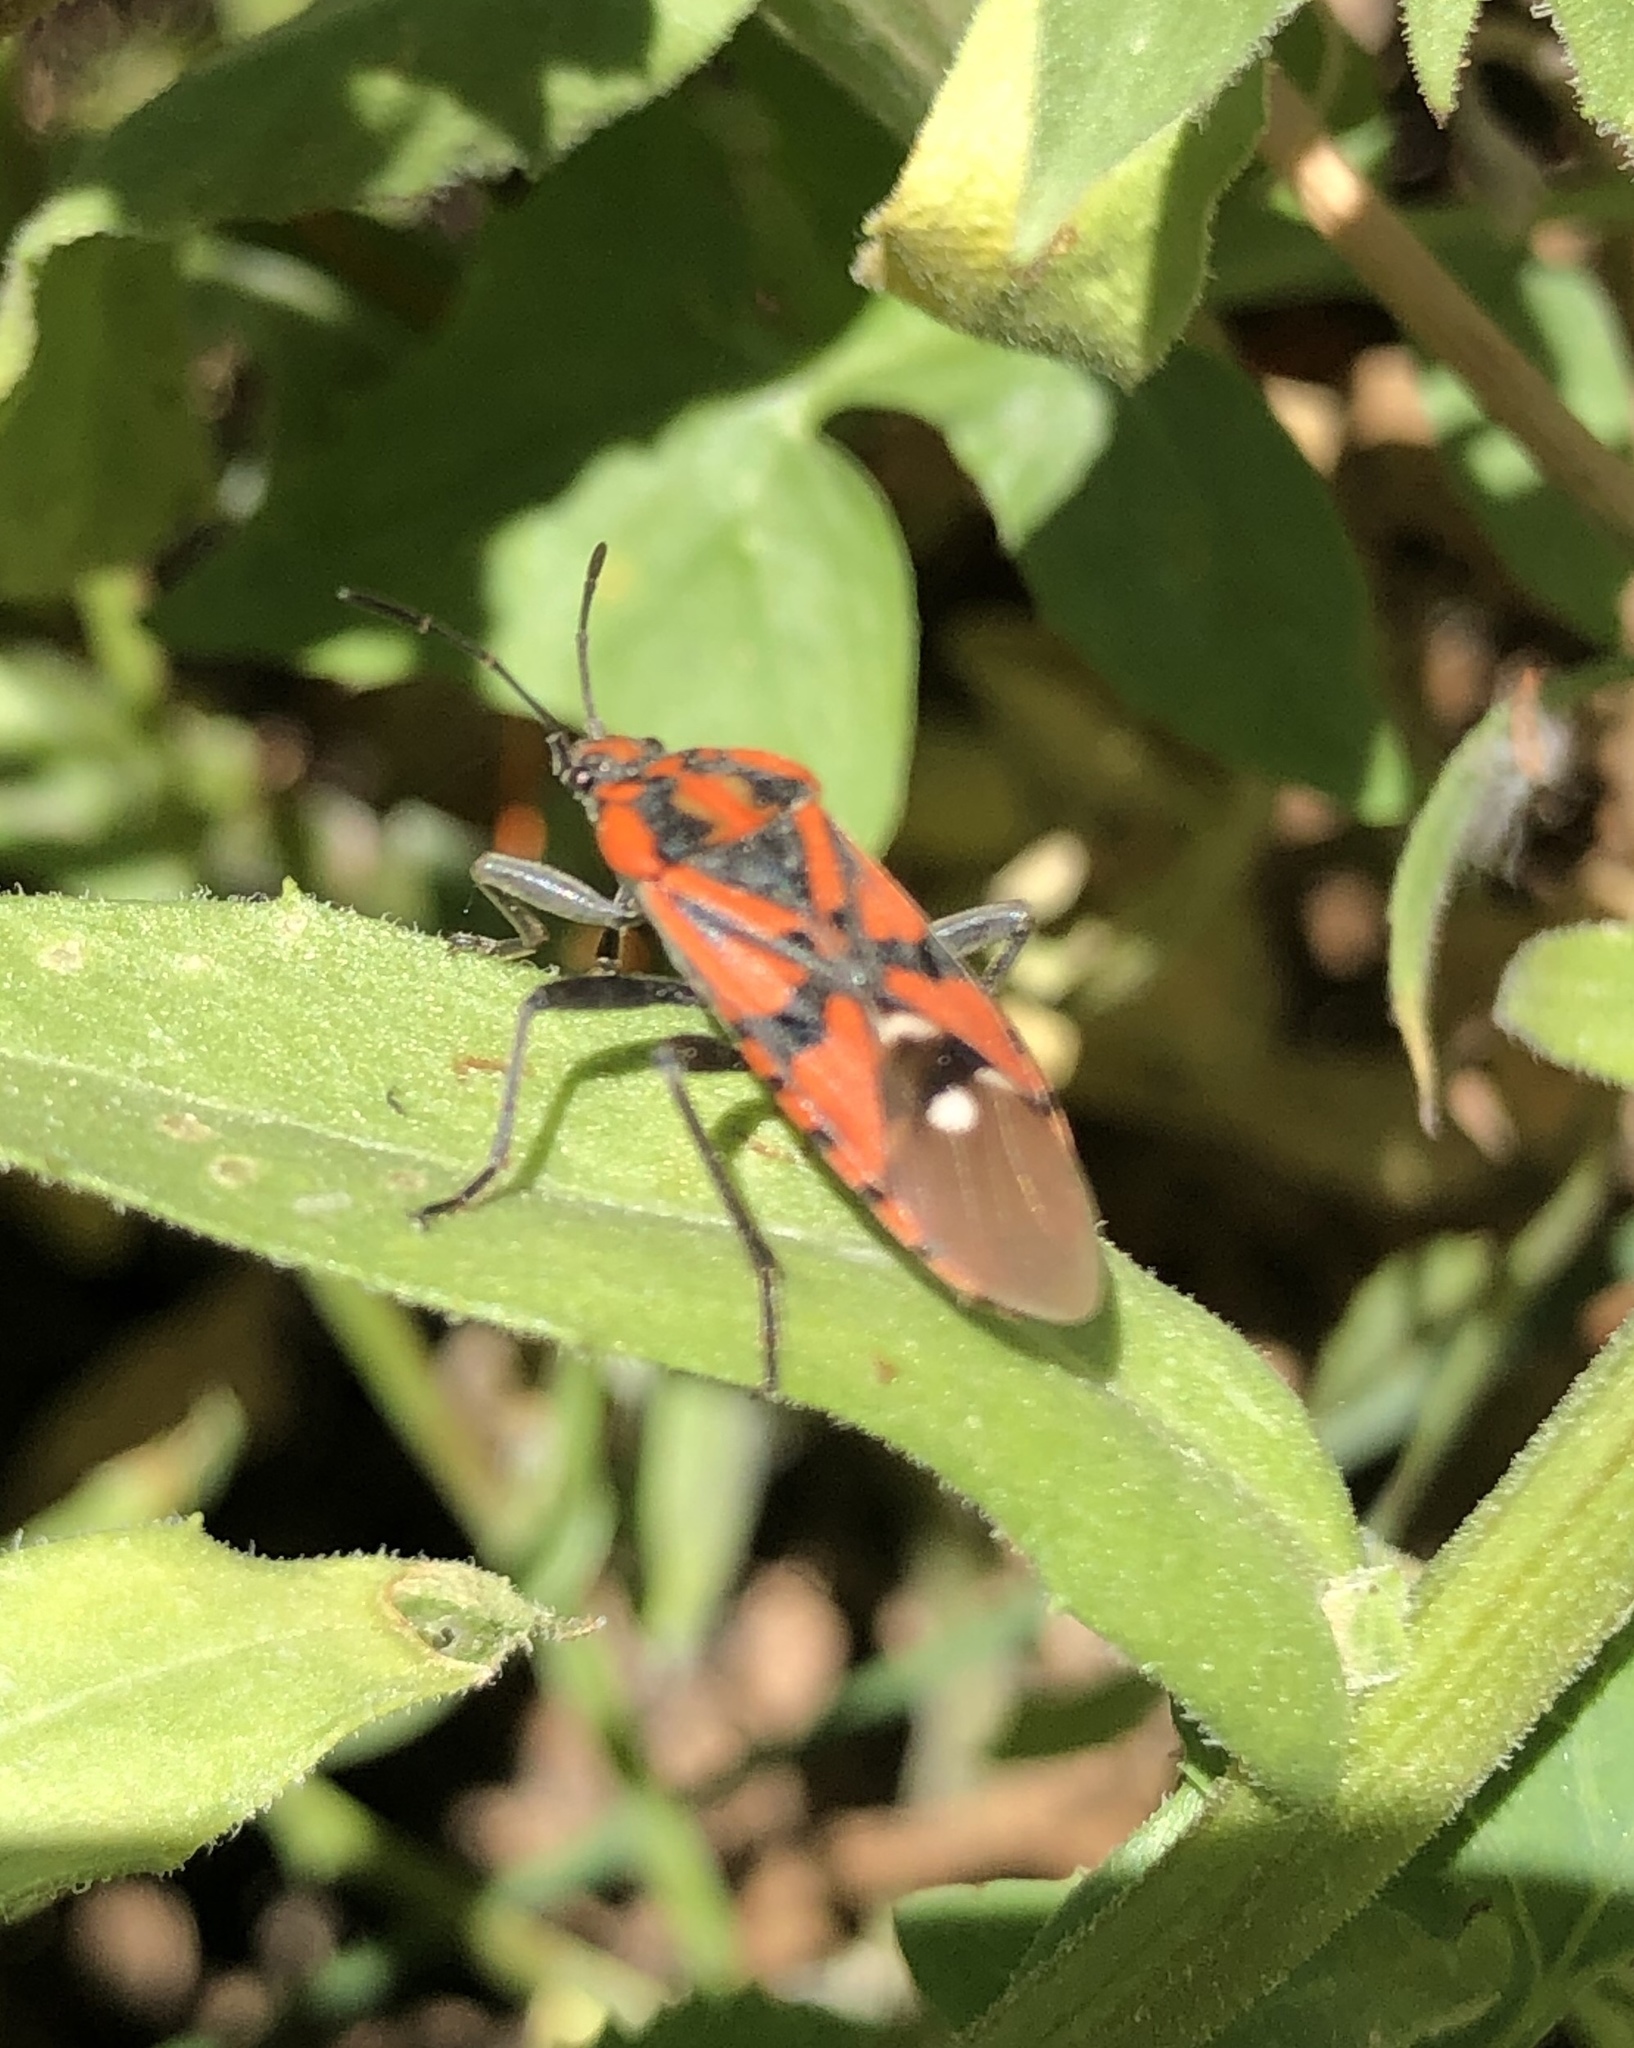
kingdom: Animalia
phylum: Arthropoda
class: Insecta
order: Hemiptera
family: Lygaeidae
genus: Spilostethus
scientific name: Spilostethus pandurus
